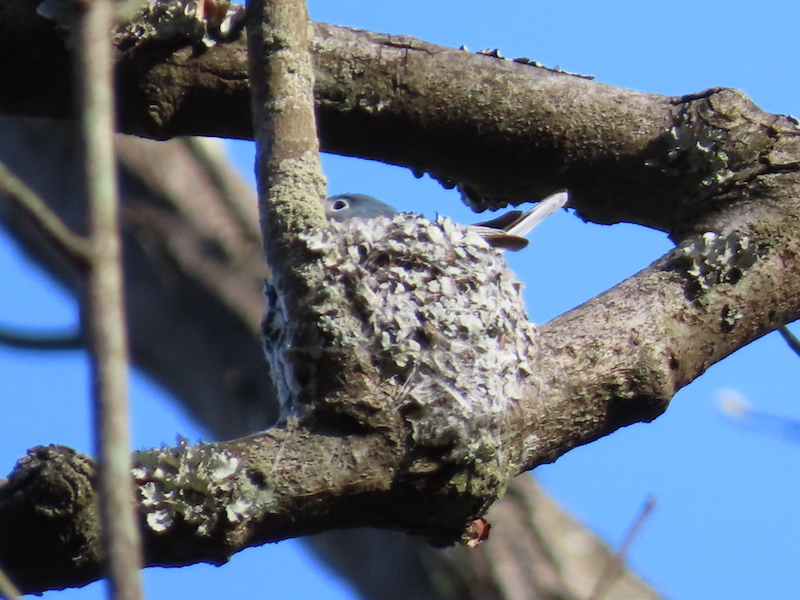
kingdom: Animalia
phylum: Chordata
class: Aves
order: Passeriformes
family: Polioptilidae
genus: Polioptila
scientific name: Polioptila caerulea
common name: Blue-gray gnatcatcher
